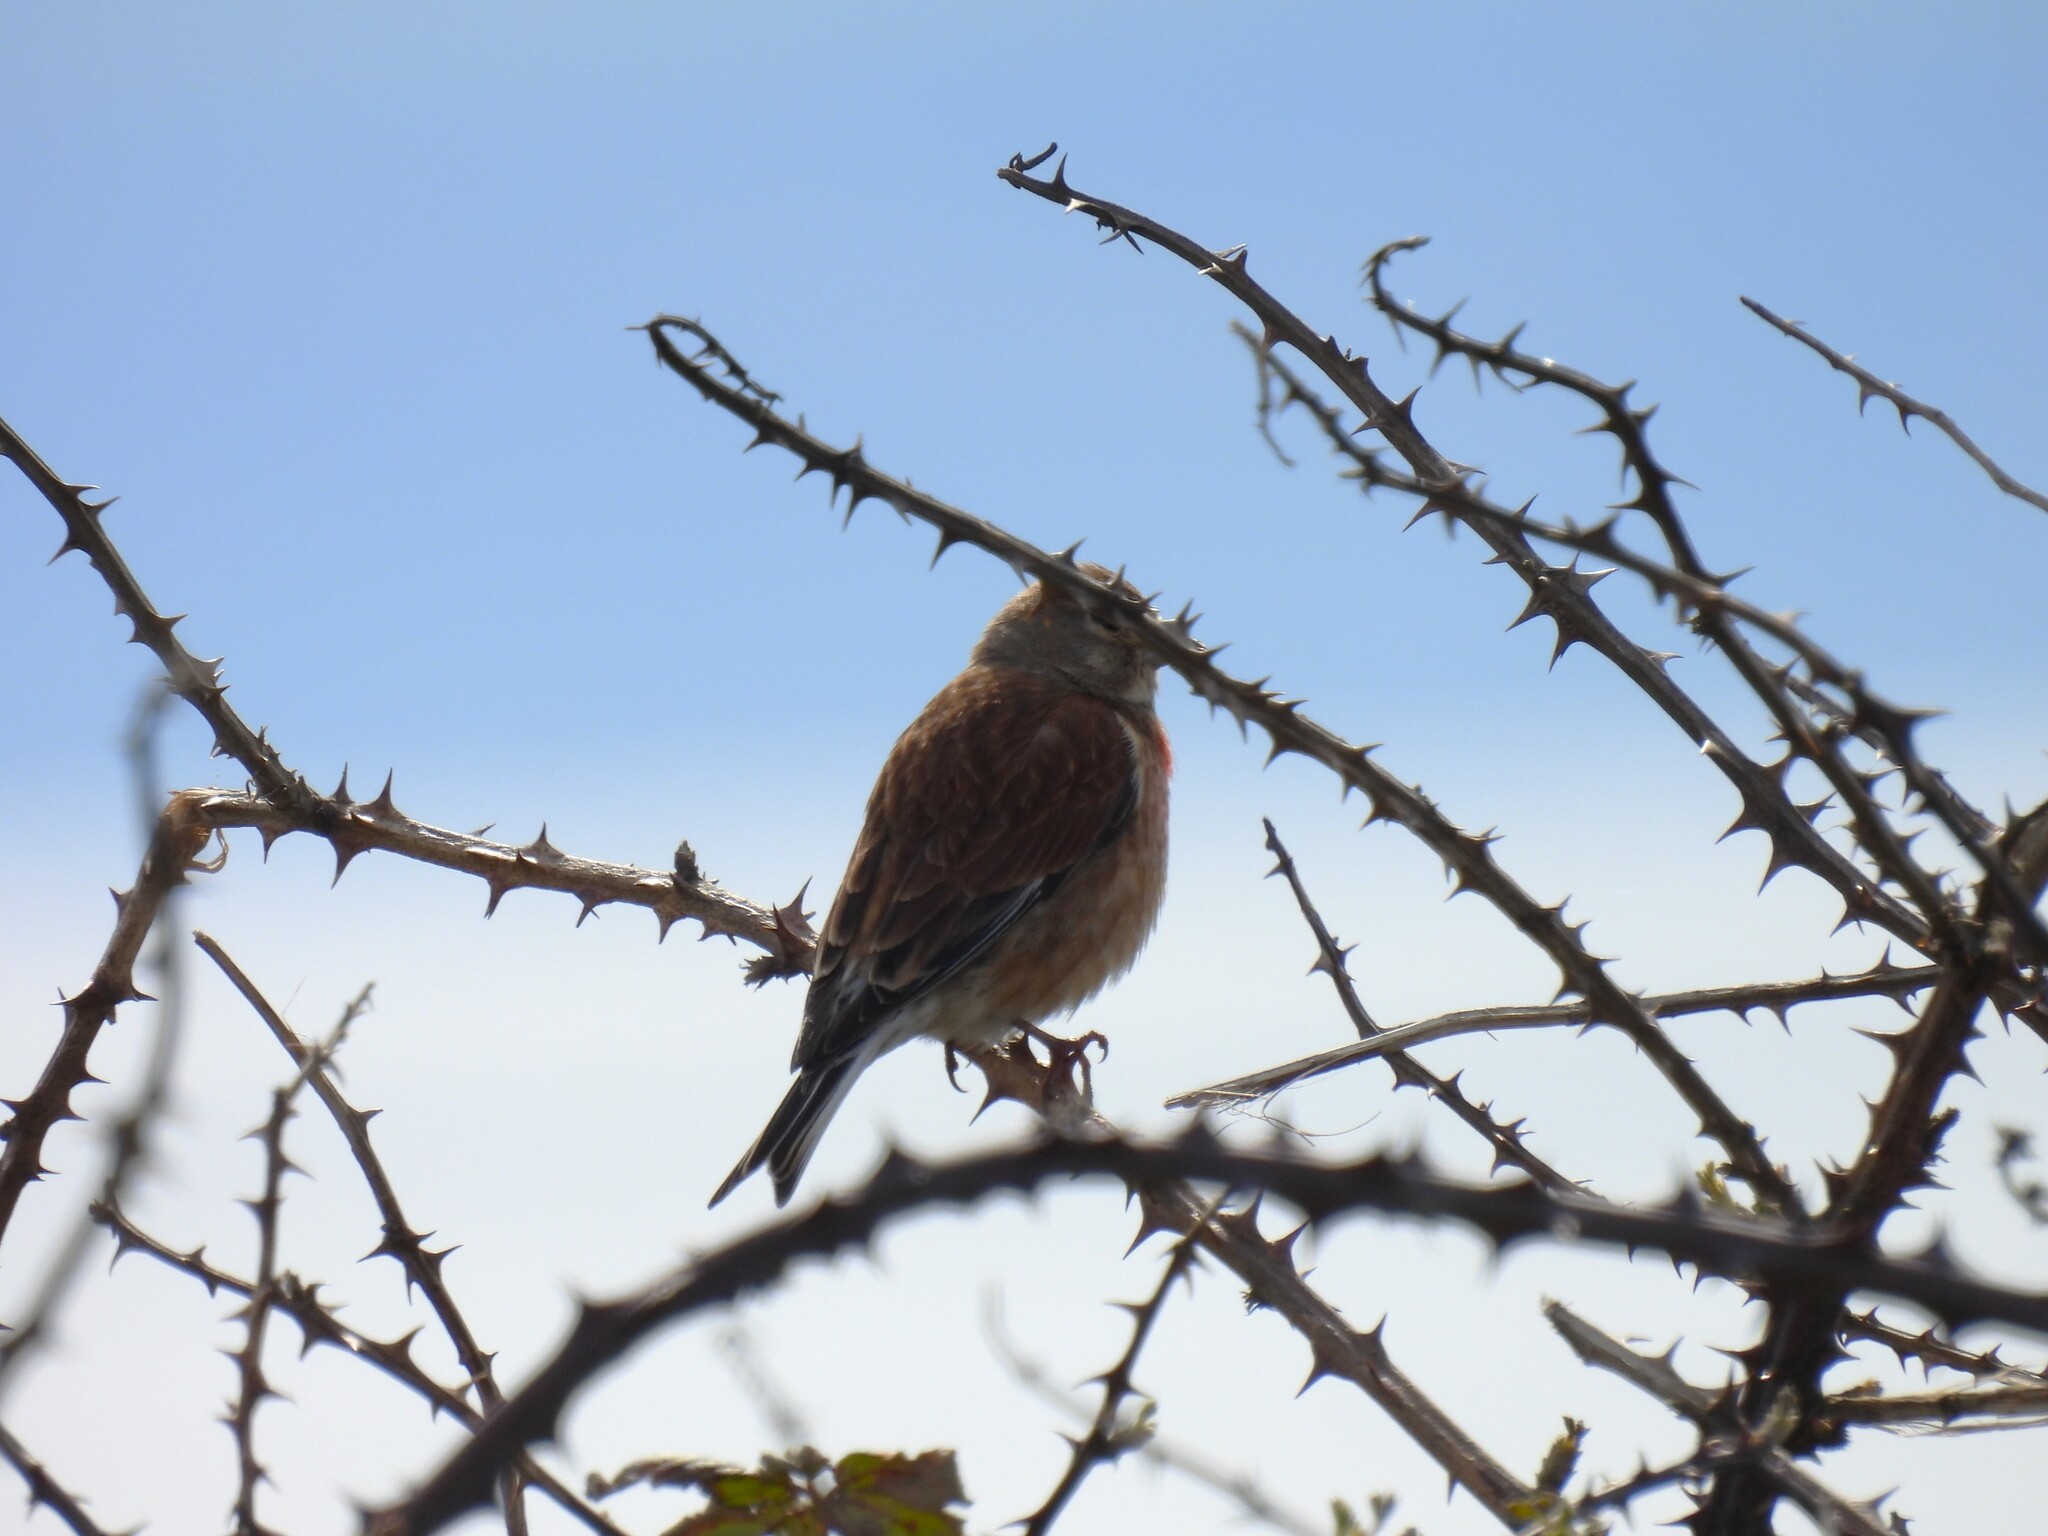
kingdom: Animalia
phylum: Chordata
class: Aves
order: Passeriformes
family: Fringillidae
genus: Linaria
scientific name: Linaria cannabina
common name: Common linnet
